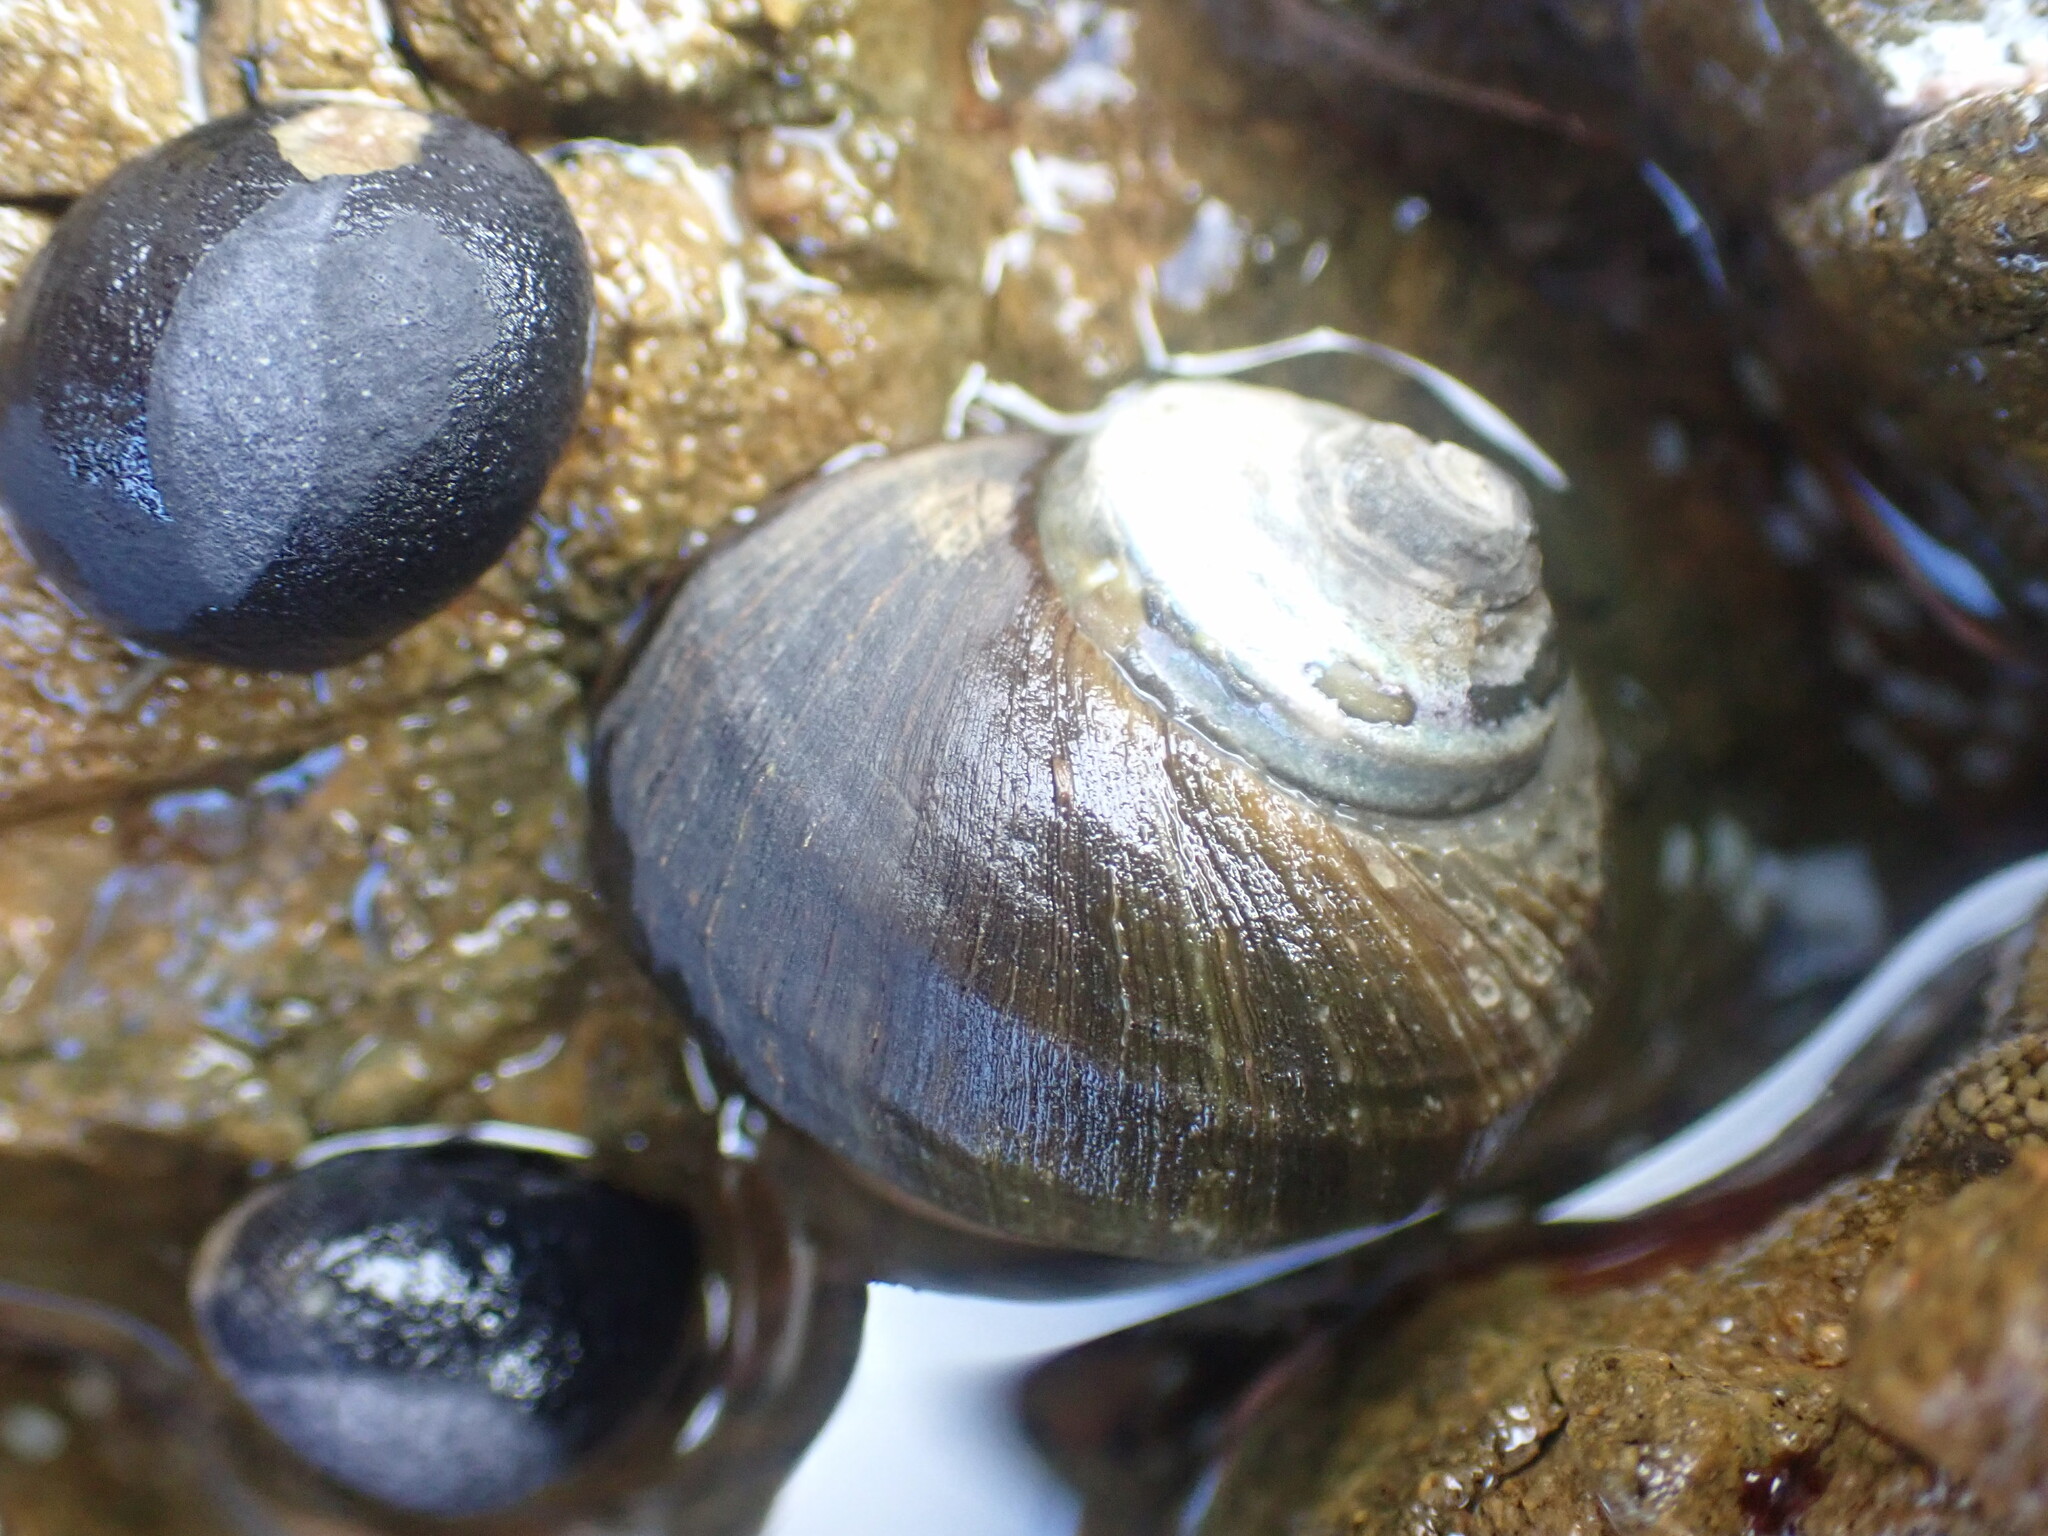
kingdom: Animalia
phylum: Mollusca
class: Gastropoda
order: Trochida
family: Turbinidae
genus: Lunella
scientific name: Lunella smaragda
